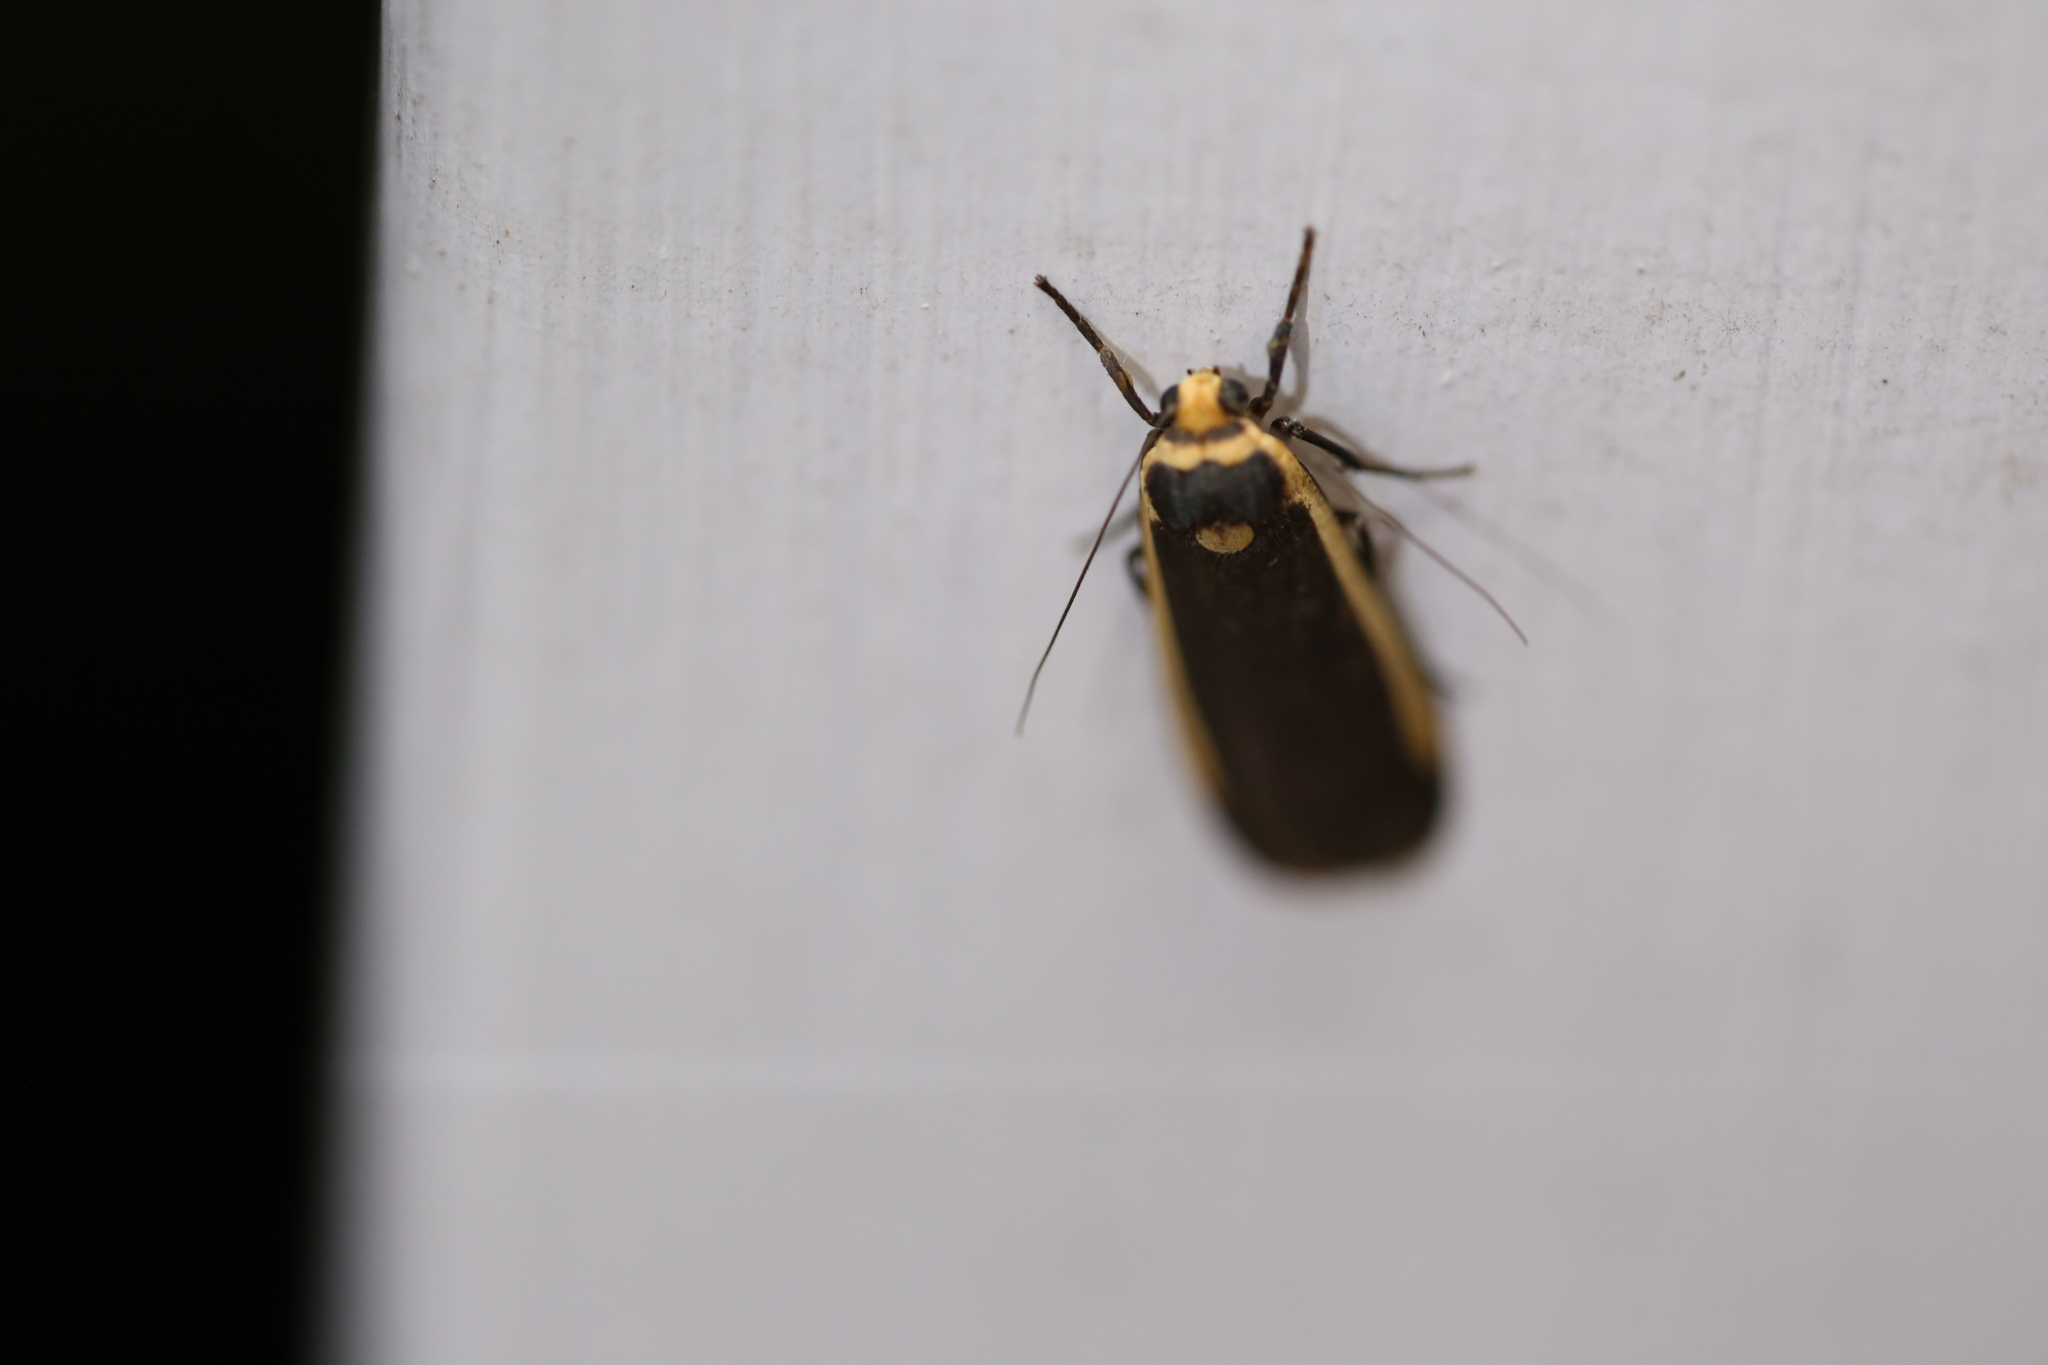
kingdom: Animalia
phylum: Arthropoda
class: Insecta
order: Lepidoptera
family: Erebidae
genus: Brunia
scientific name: Brunia replana
